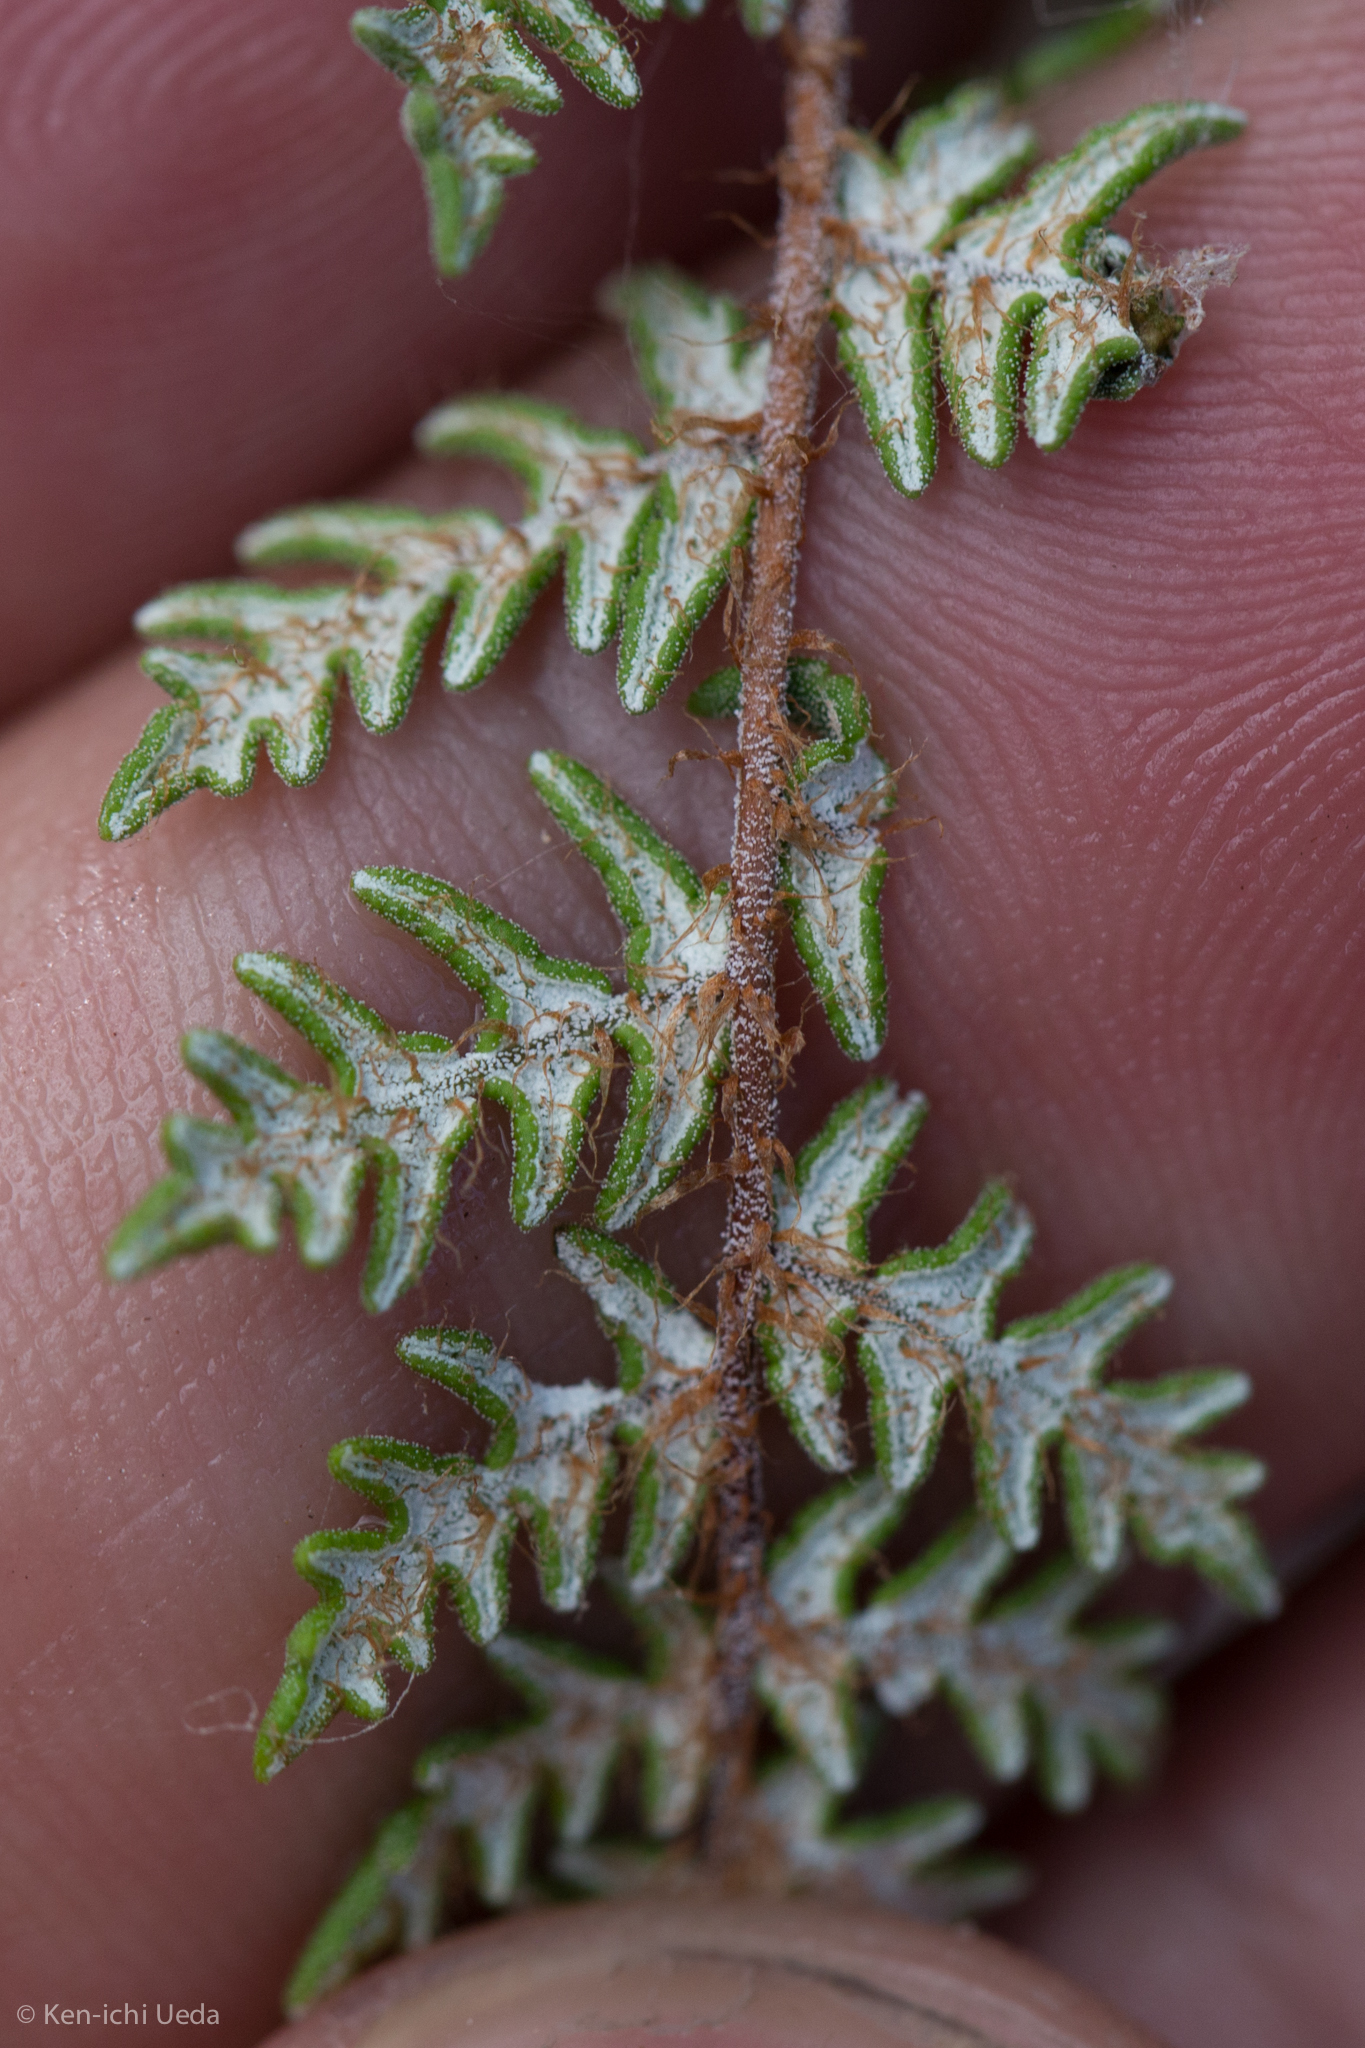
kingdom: Plantae
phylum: Tracheophyta
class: Polypodiopsida
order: Polypodiales
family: Pteridaceae
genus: Notholaena
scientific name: Notholaena grayi
